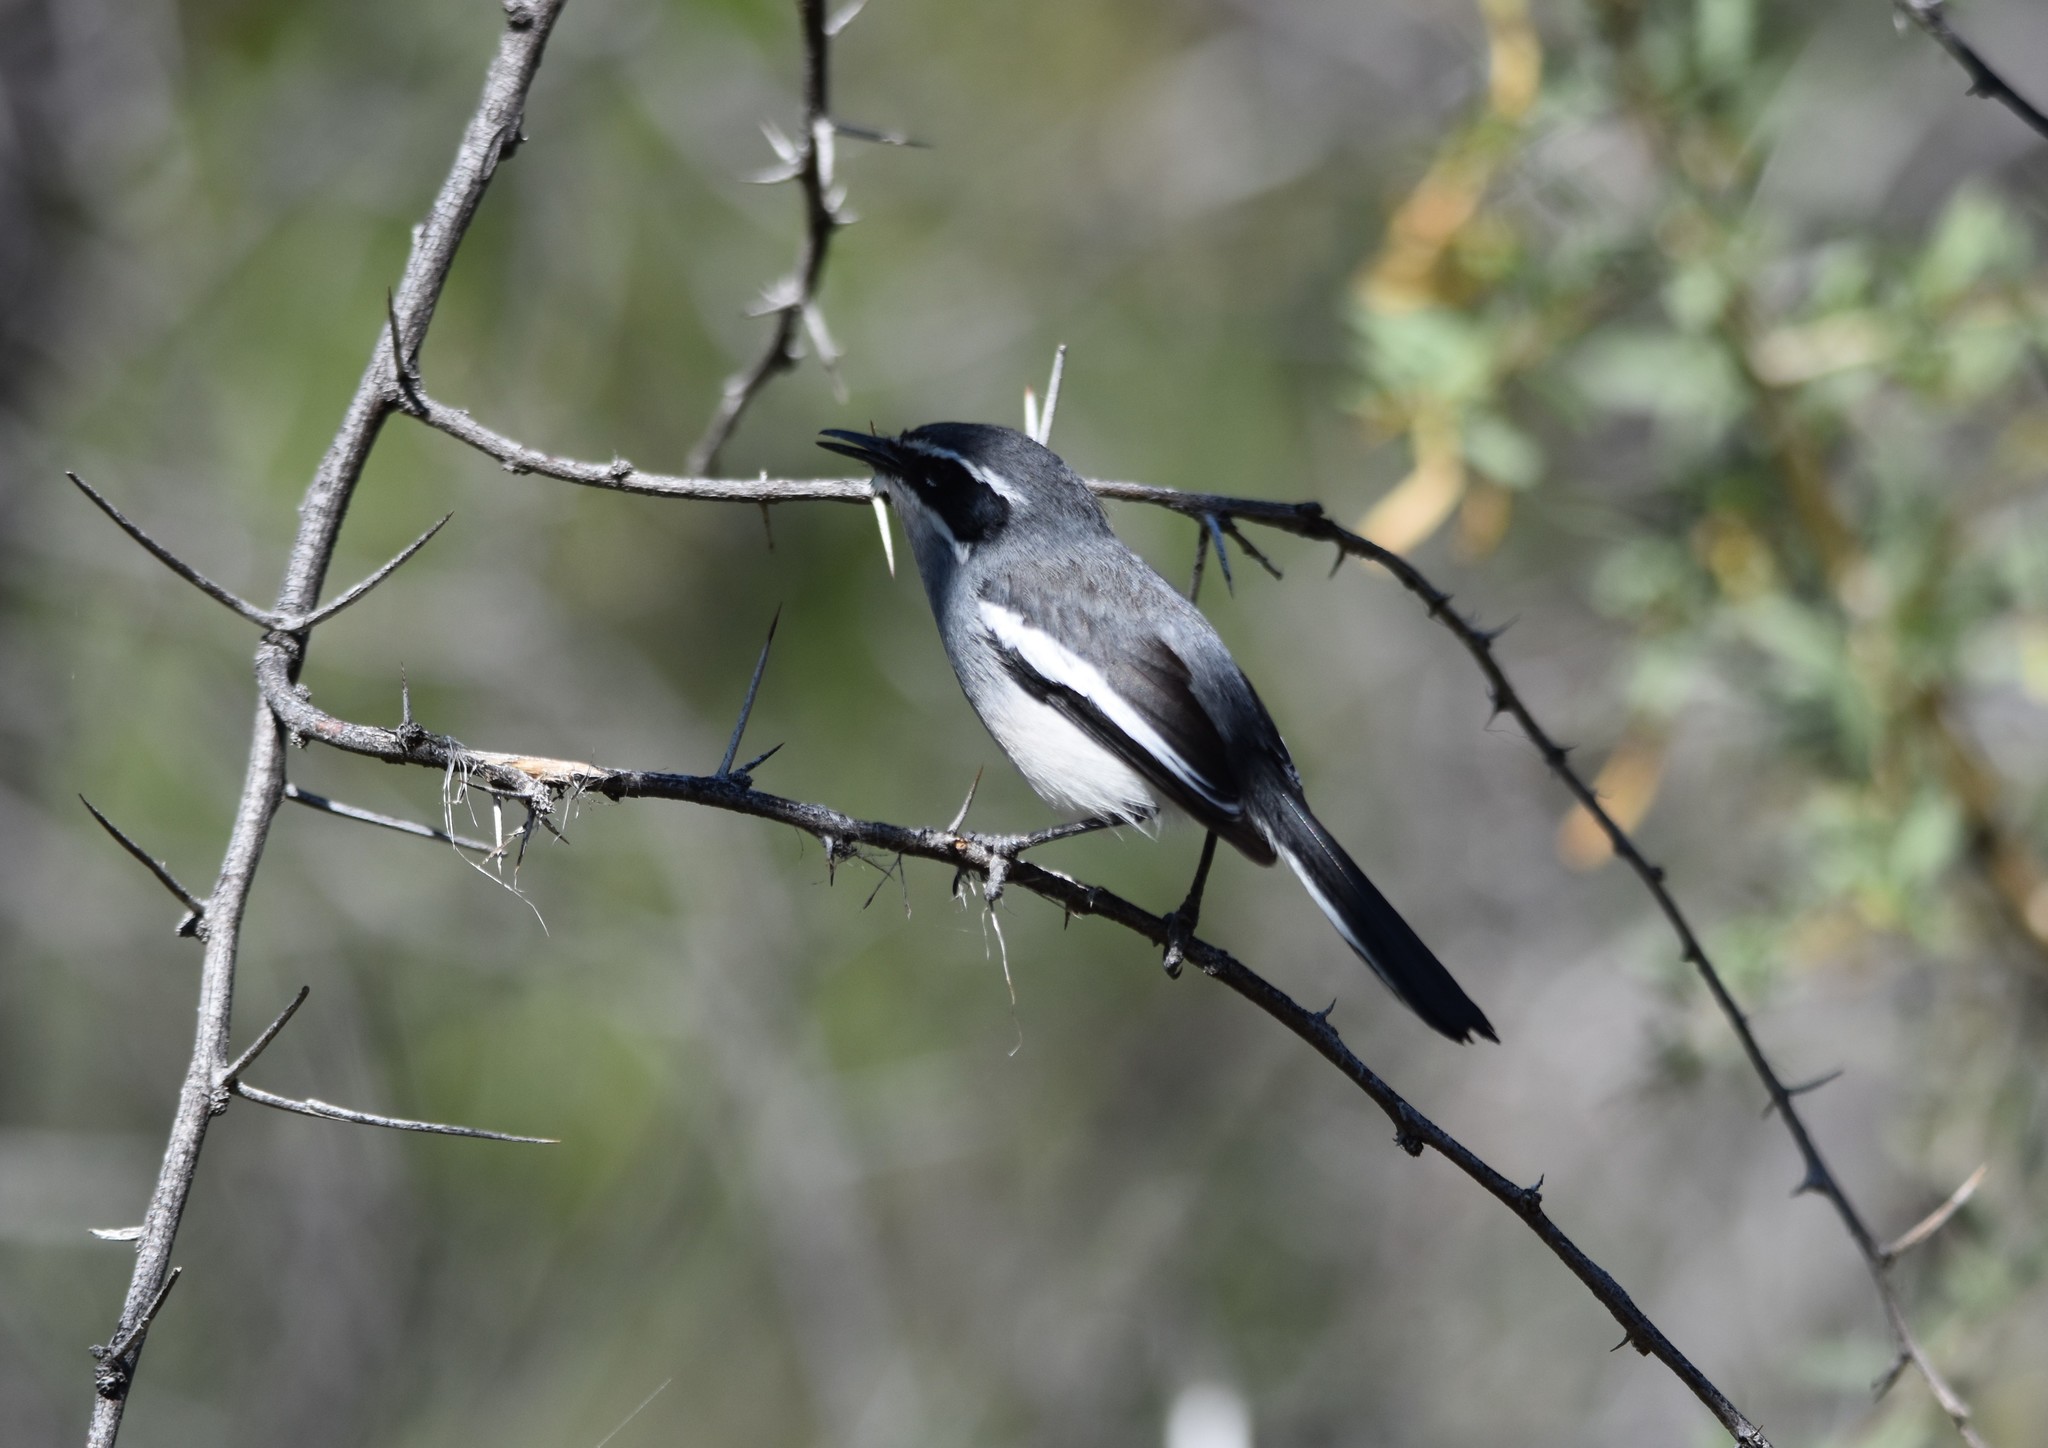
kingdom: Animalia
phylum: Chordata
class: Aves
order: Passeriformes
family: Stenostiridae
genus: Stenostira
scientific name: Stenostira scita
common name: Fairy flycatcher
